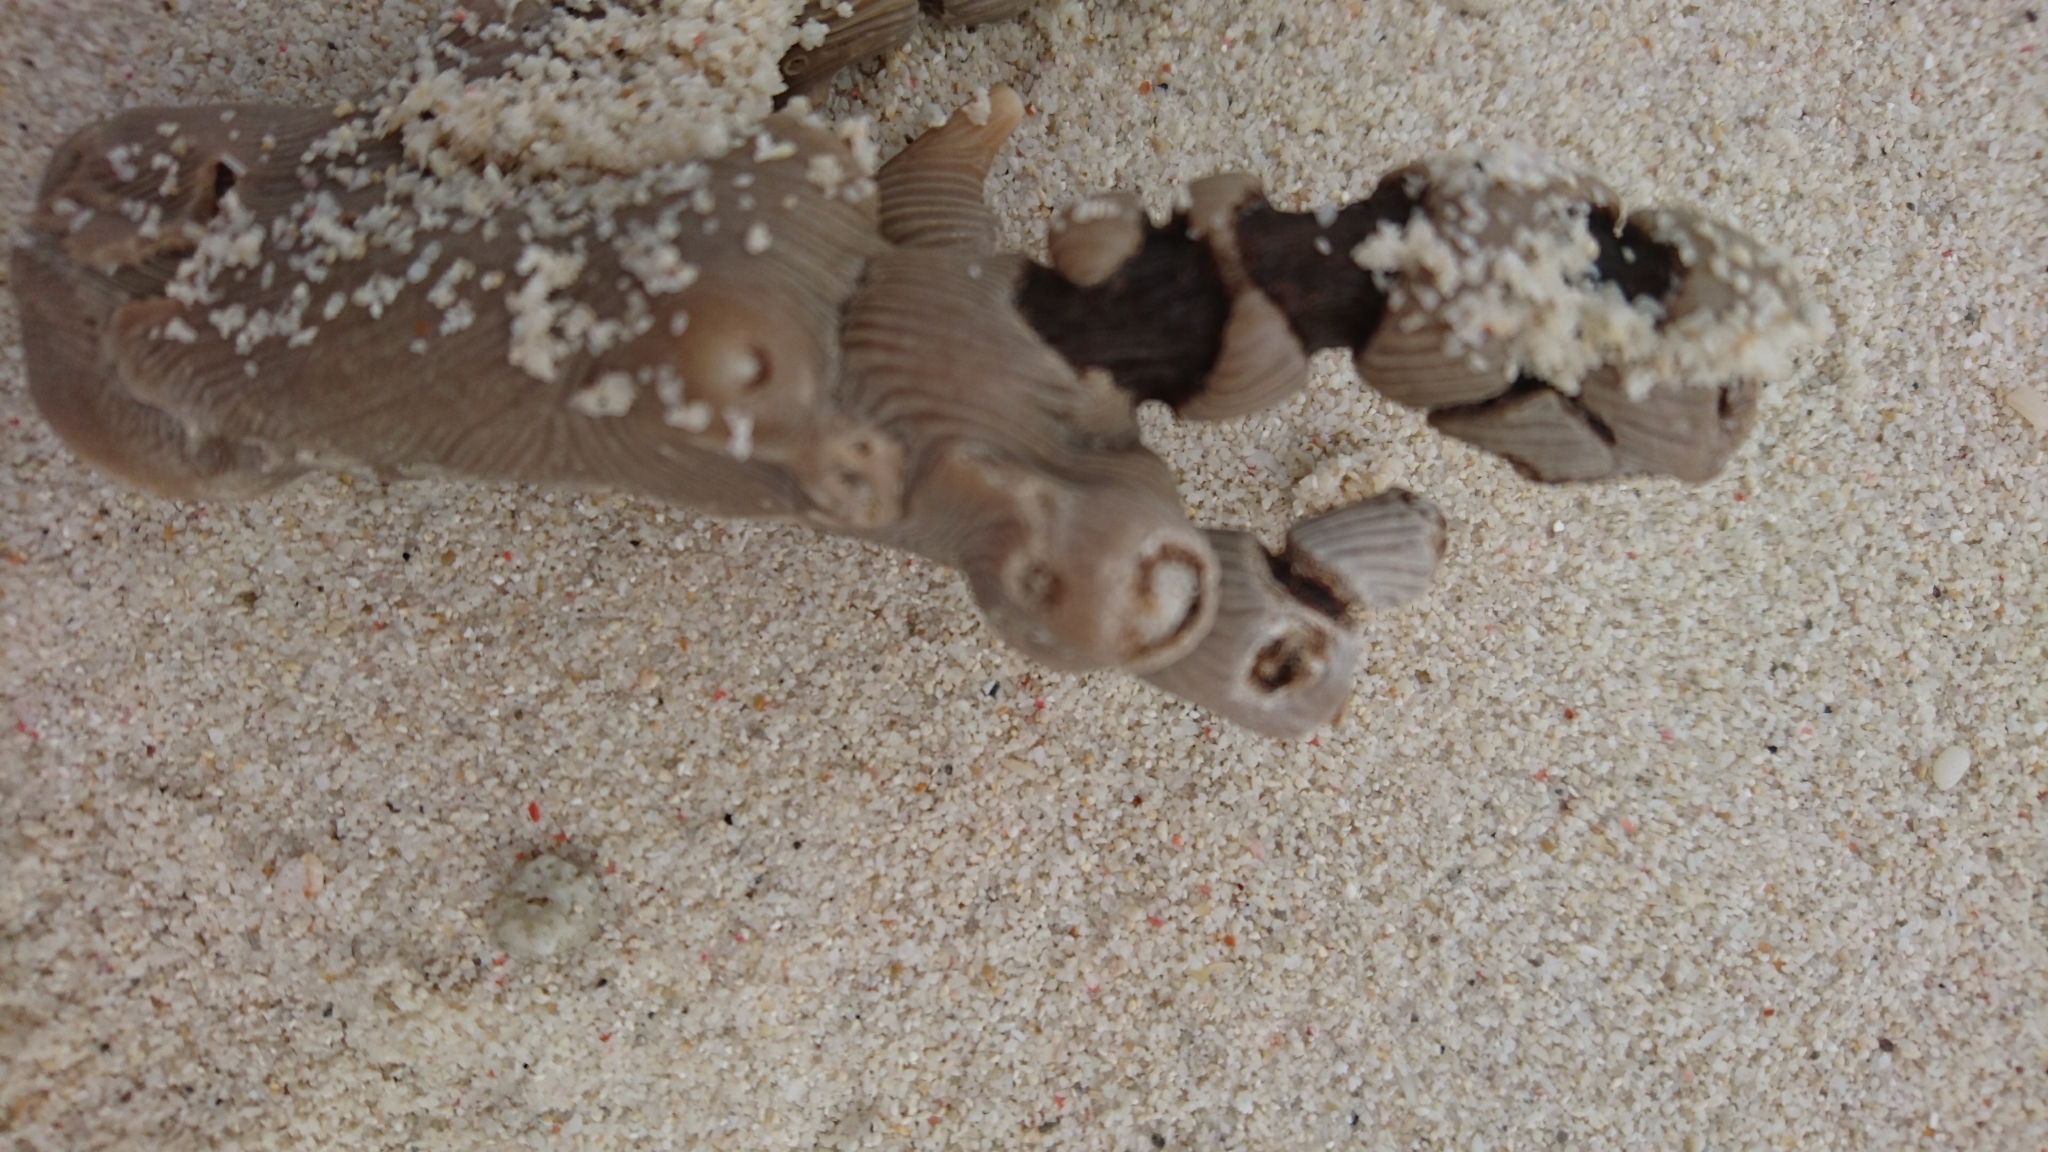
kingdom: Animalia
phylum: Cnidaria
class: Anthozoa
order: Malacalcyonacea
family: Isididae
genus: Isis
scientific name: Isis hippuris
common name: Golden sea fan
